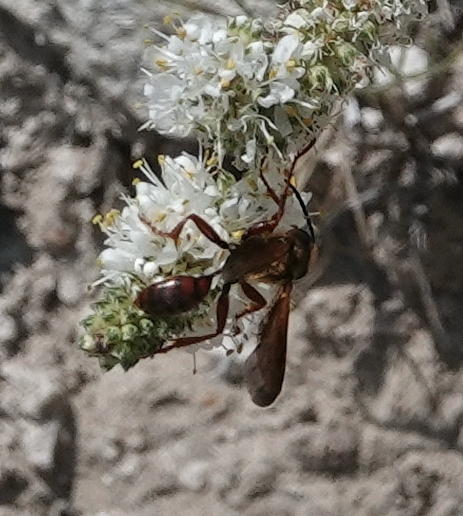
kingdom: Animalia
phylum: Arthropoda
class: Insecta
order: Hymenoptera
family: Sphecidae
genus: Isodontia
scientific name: Isodontia elegans
